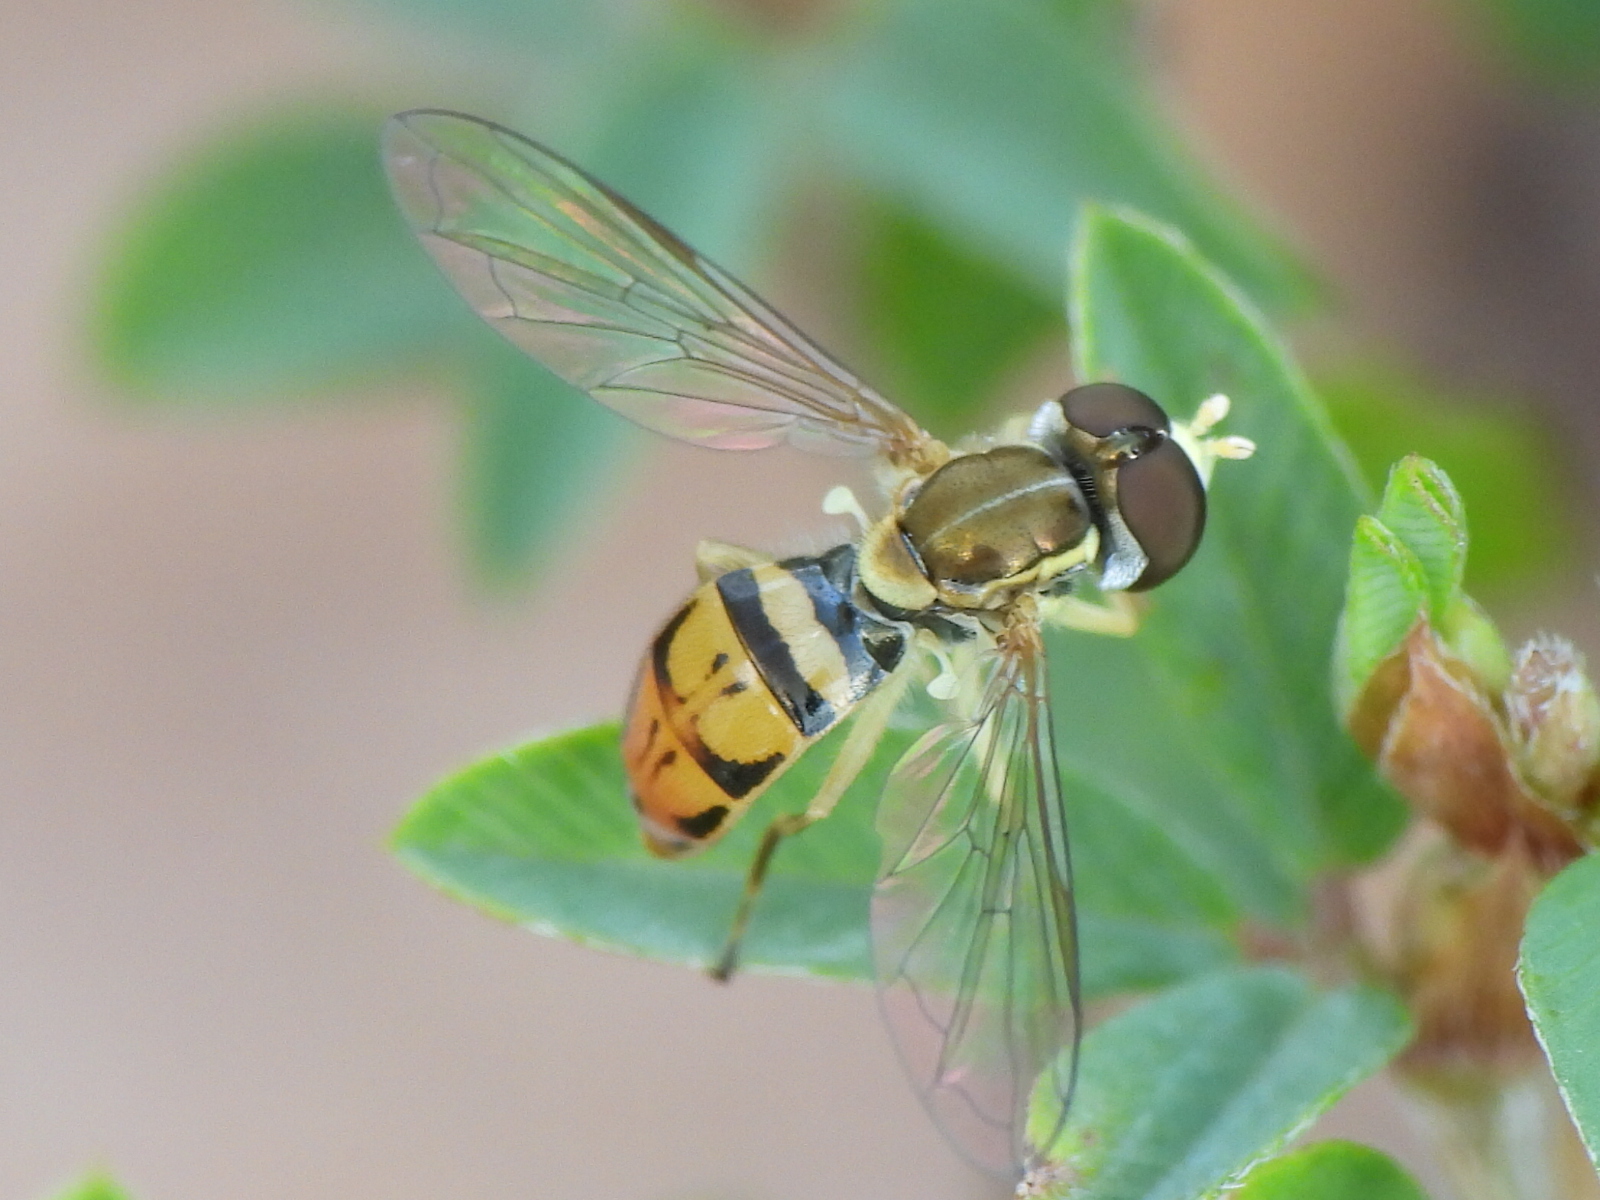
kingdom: Animalia
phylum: Arthropoda
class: Insecta
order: Diptera
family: Syrphidae
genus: Toxomerus
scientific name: Toxomerus marginatus
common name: Syrphid fly
